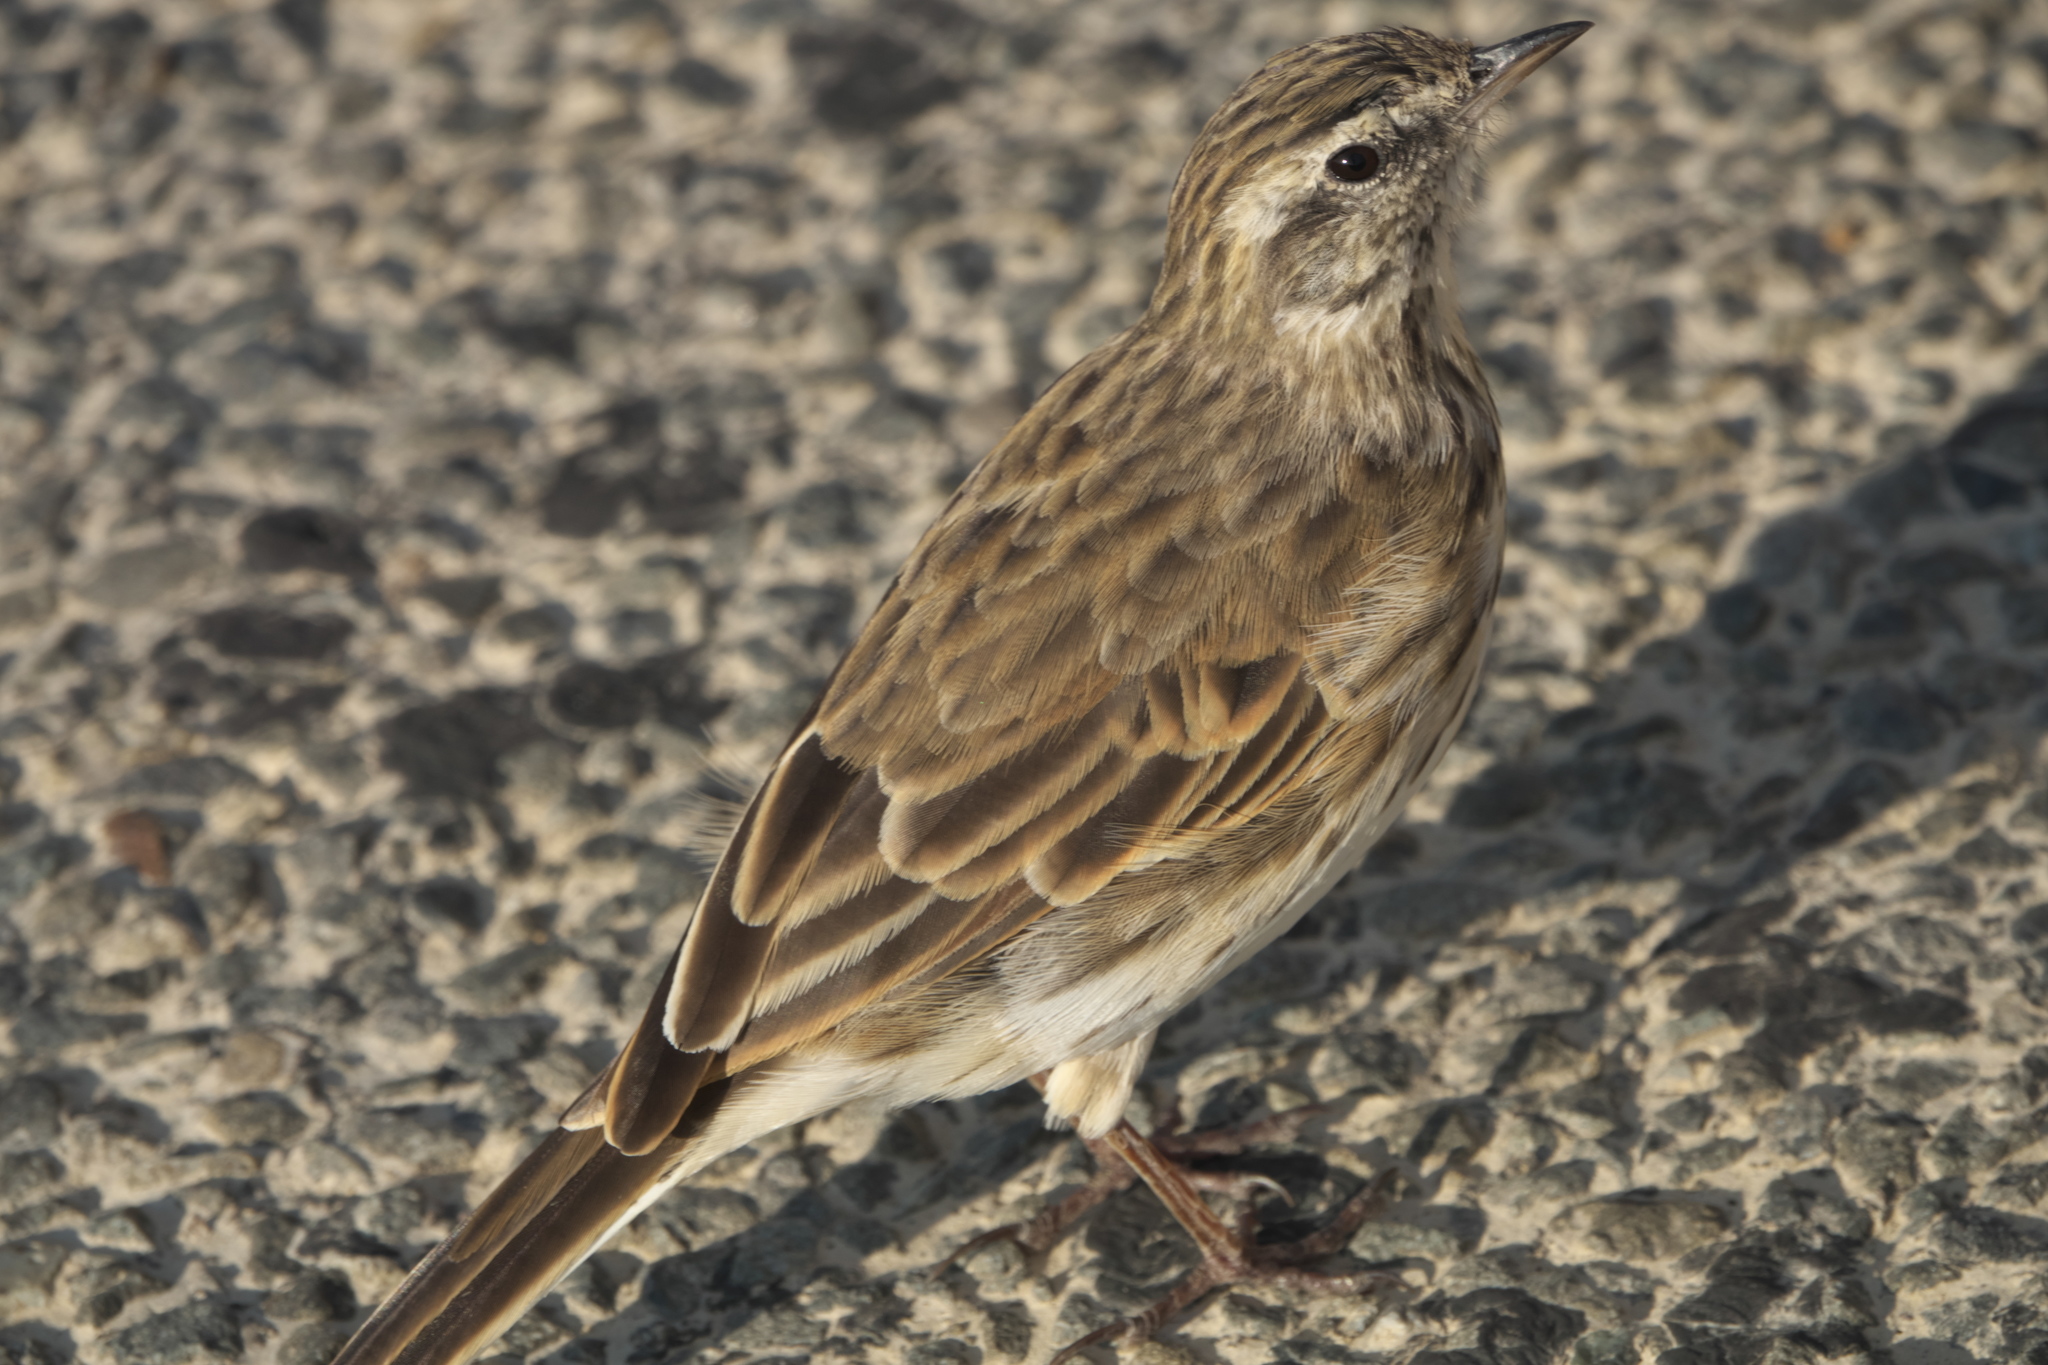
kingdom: Animalia
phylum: Chordata
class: Aves
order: Passeriformes
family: Motacillidae
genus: Anthus
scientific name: Anthus novaeseelandiae
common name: New zealand pipit
